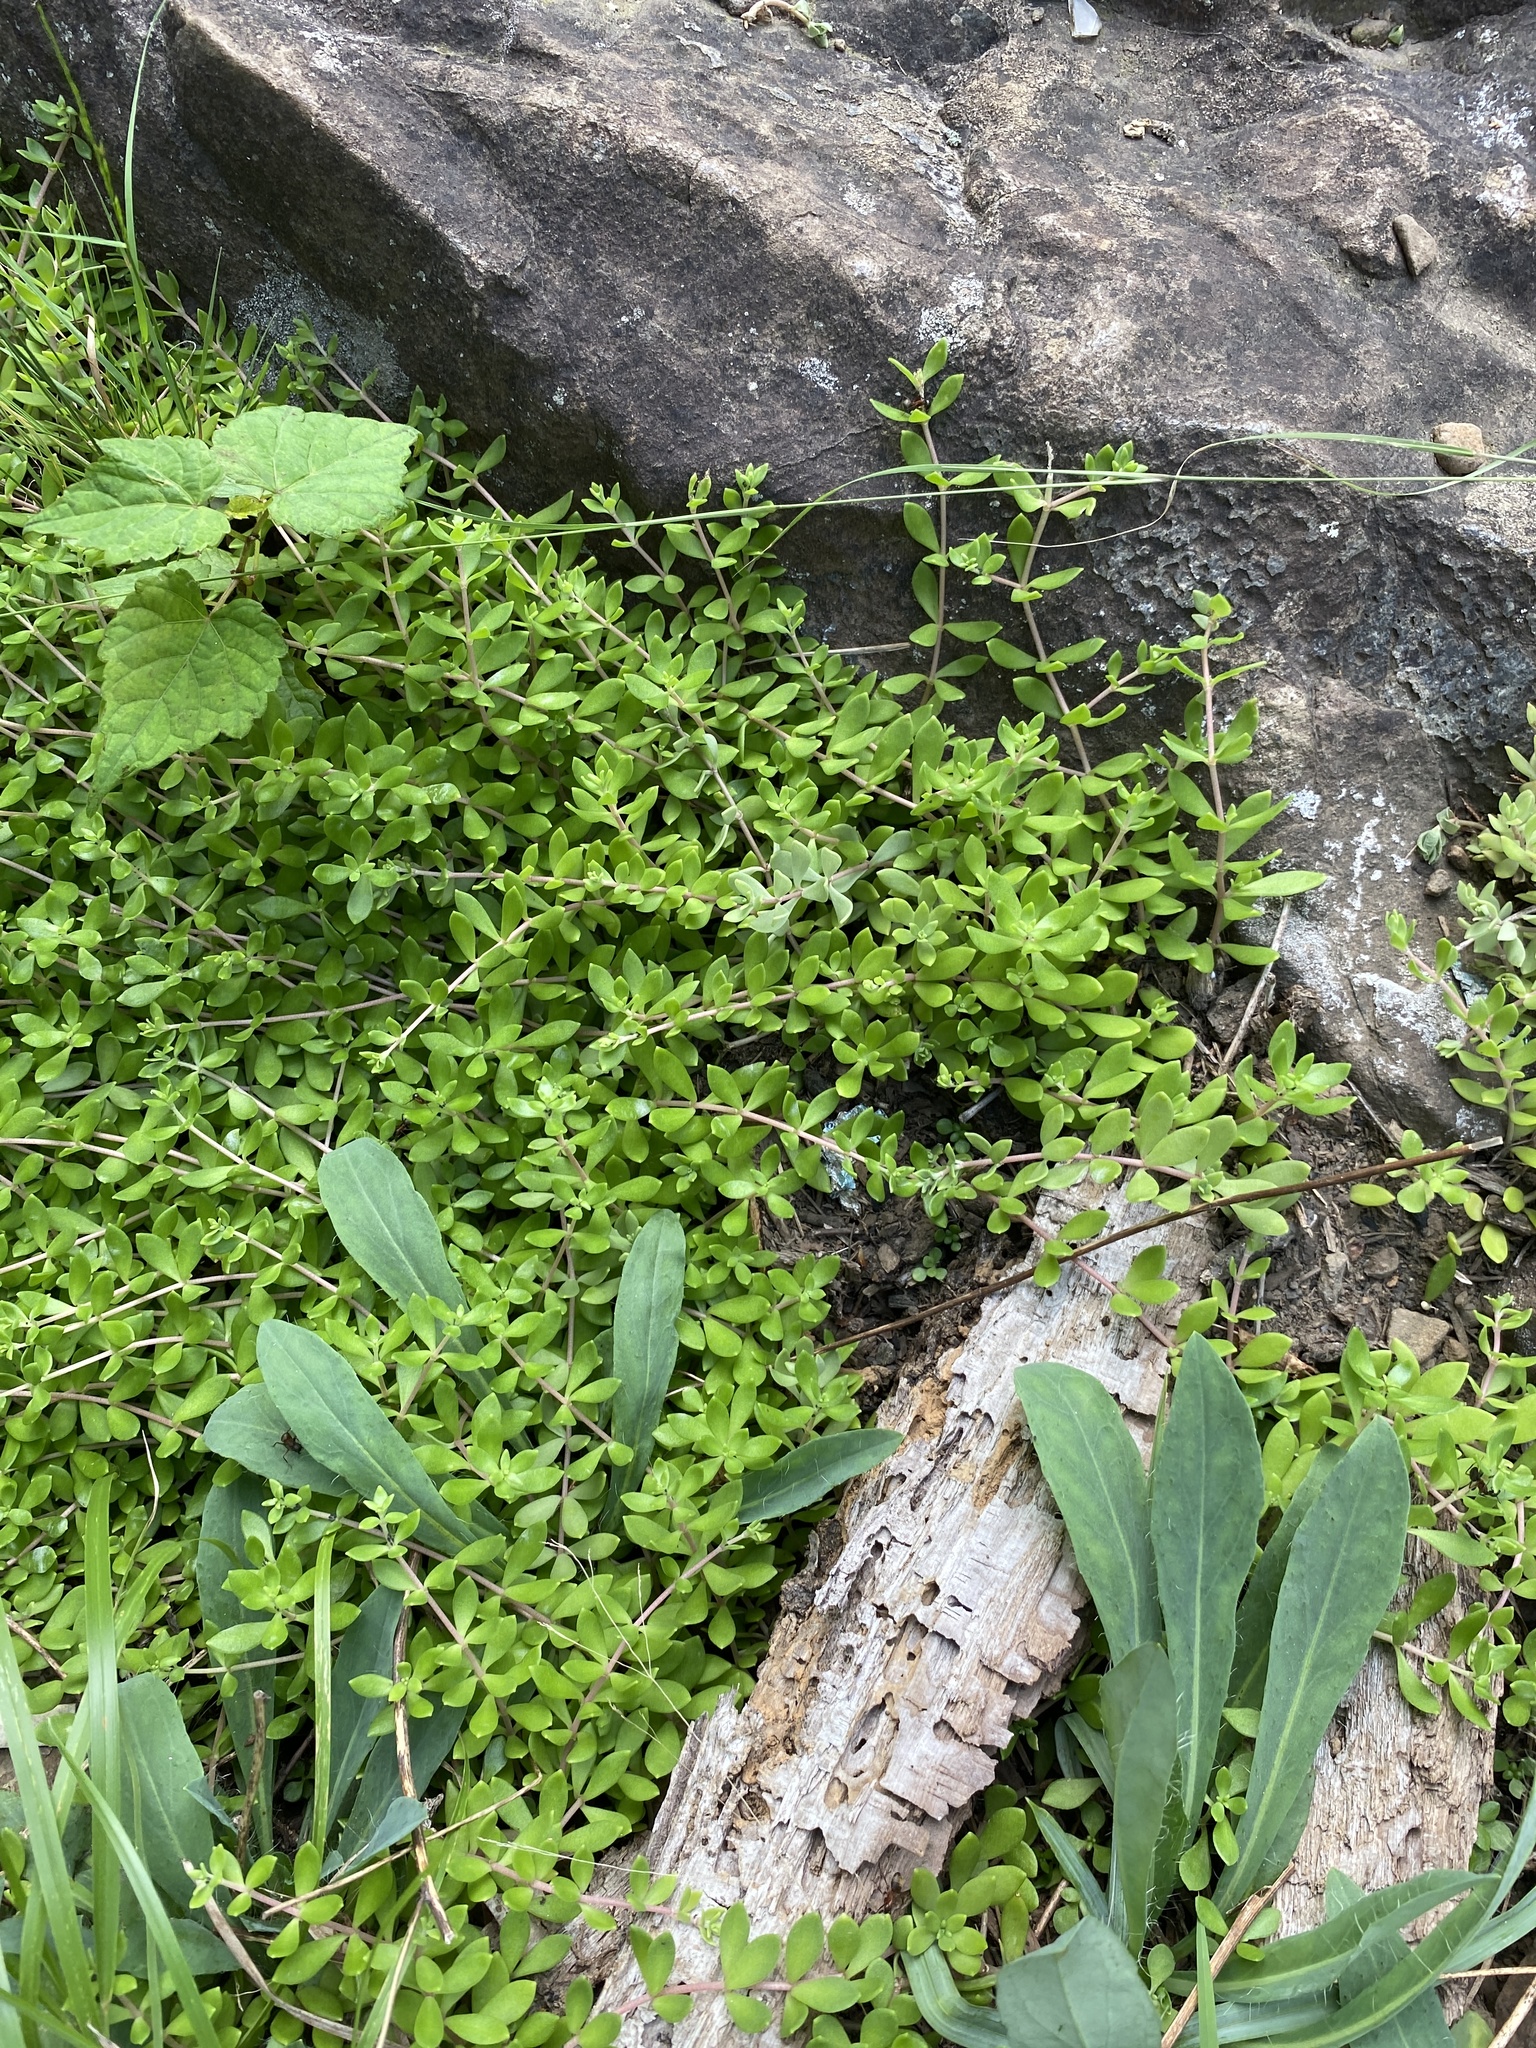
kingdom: Plantae
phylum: Tracheophyta
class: Magnoliopsida
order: Saxifragales
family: Crassulaceae
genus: Sedum
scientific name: Sedum sarmentosum
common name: Stringy stonecrop
